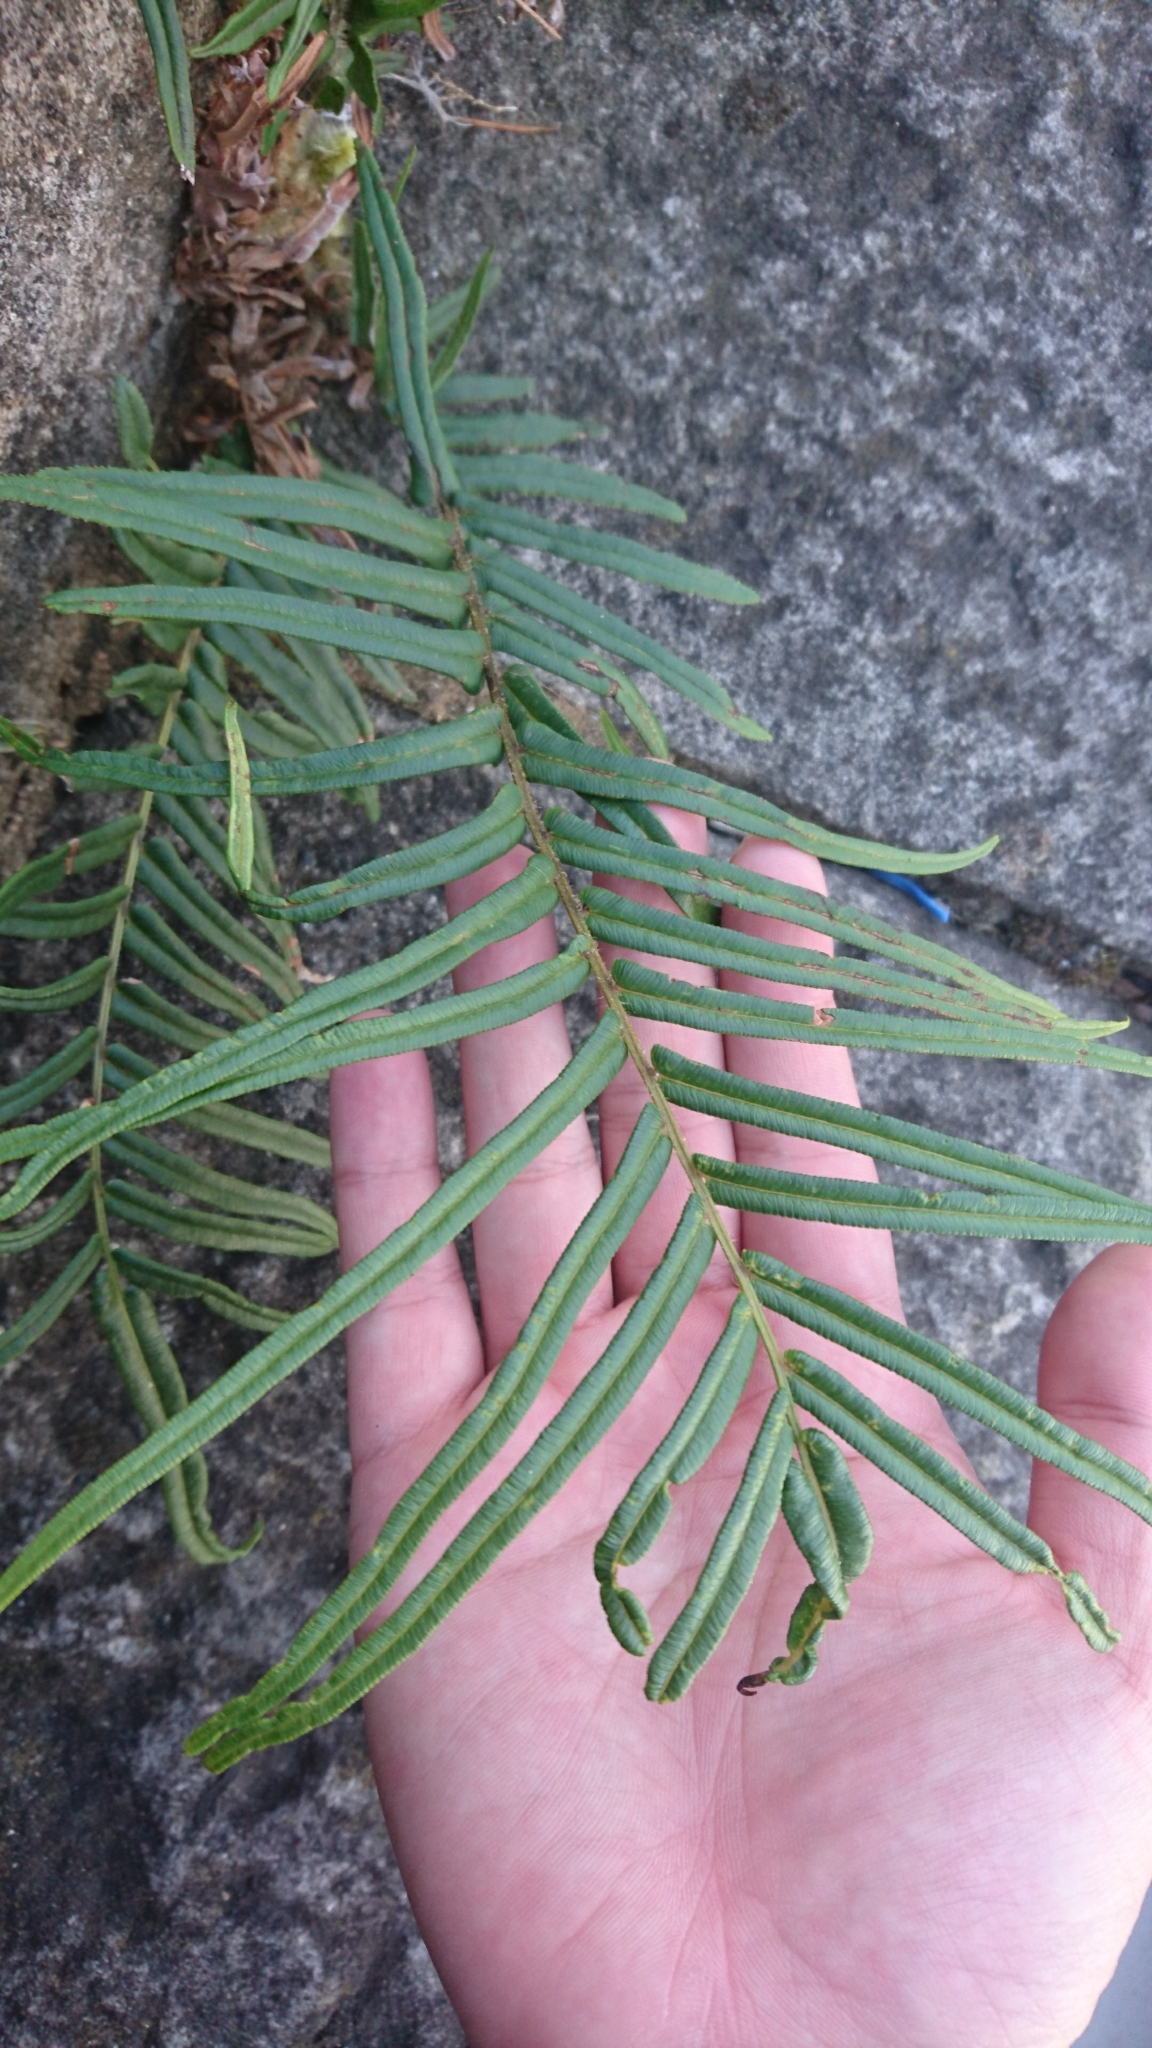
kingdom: Plantae
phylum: Tracheophyta
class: Polypodiopsida
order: Polypodiales
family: Pteridaceae
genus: Pteris
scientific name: Pteris vittata
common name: Ladder brake
